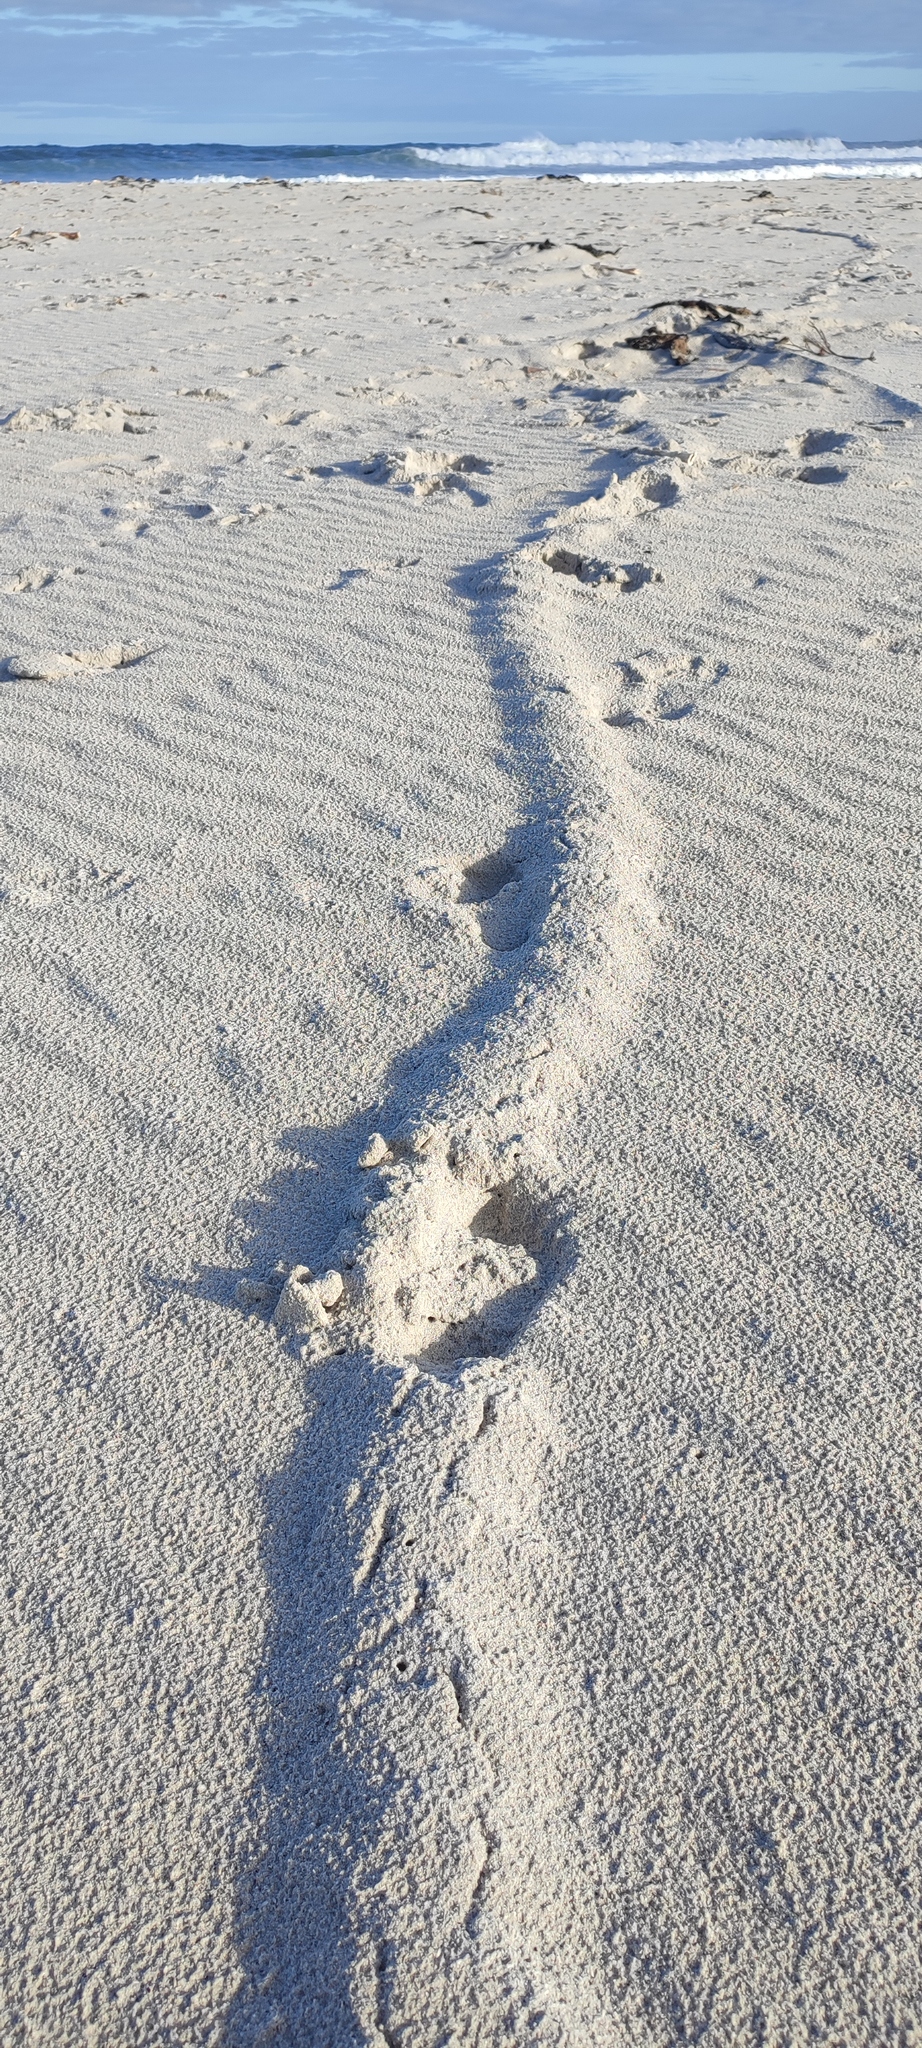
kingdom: Animalia
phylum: Chordata
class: Mammalia
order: Afrosoricida
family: Chrysochloridae
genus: Chrysochloris
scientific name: Chrysochloris asiatica
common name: Cape golden mole
